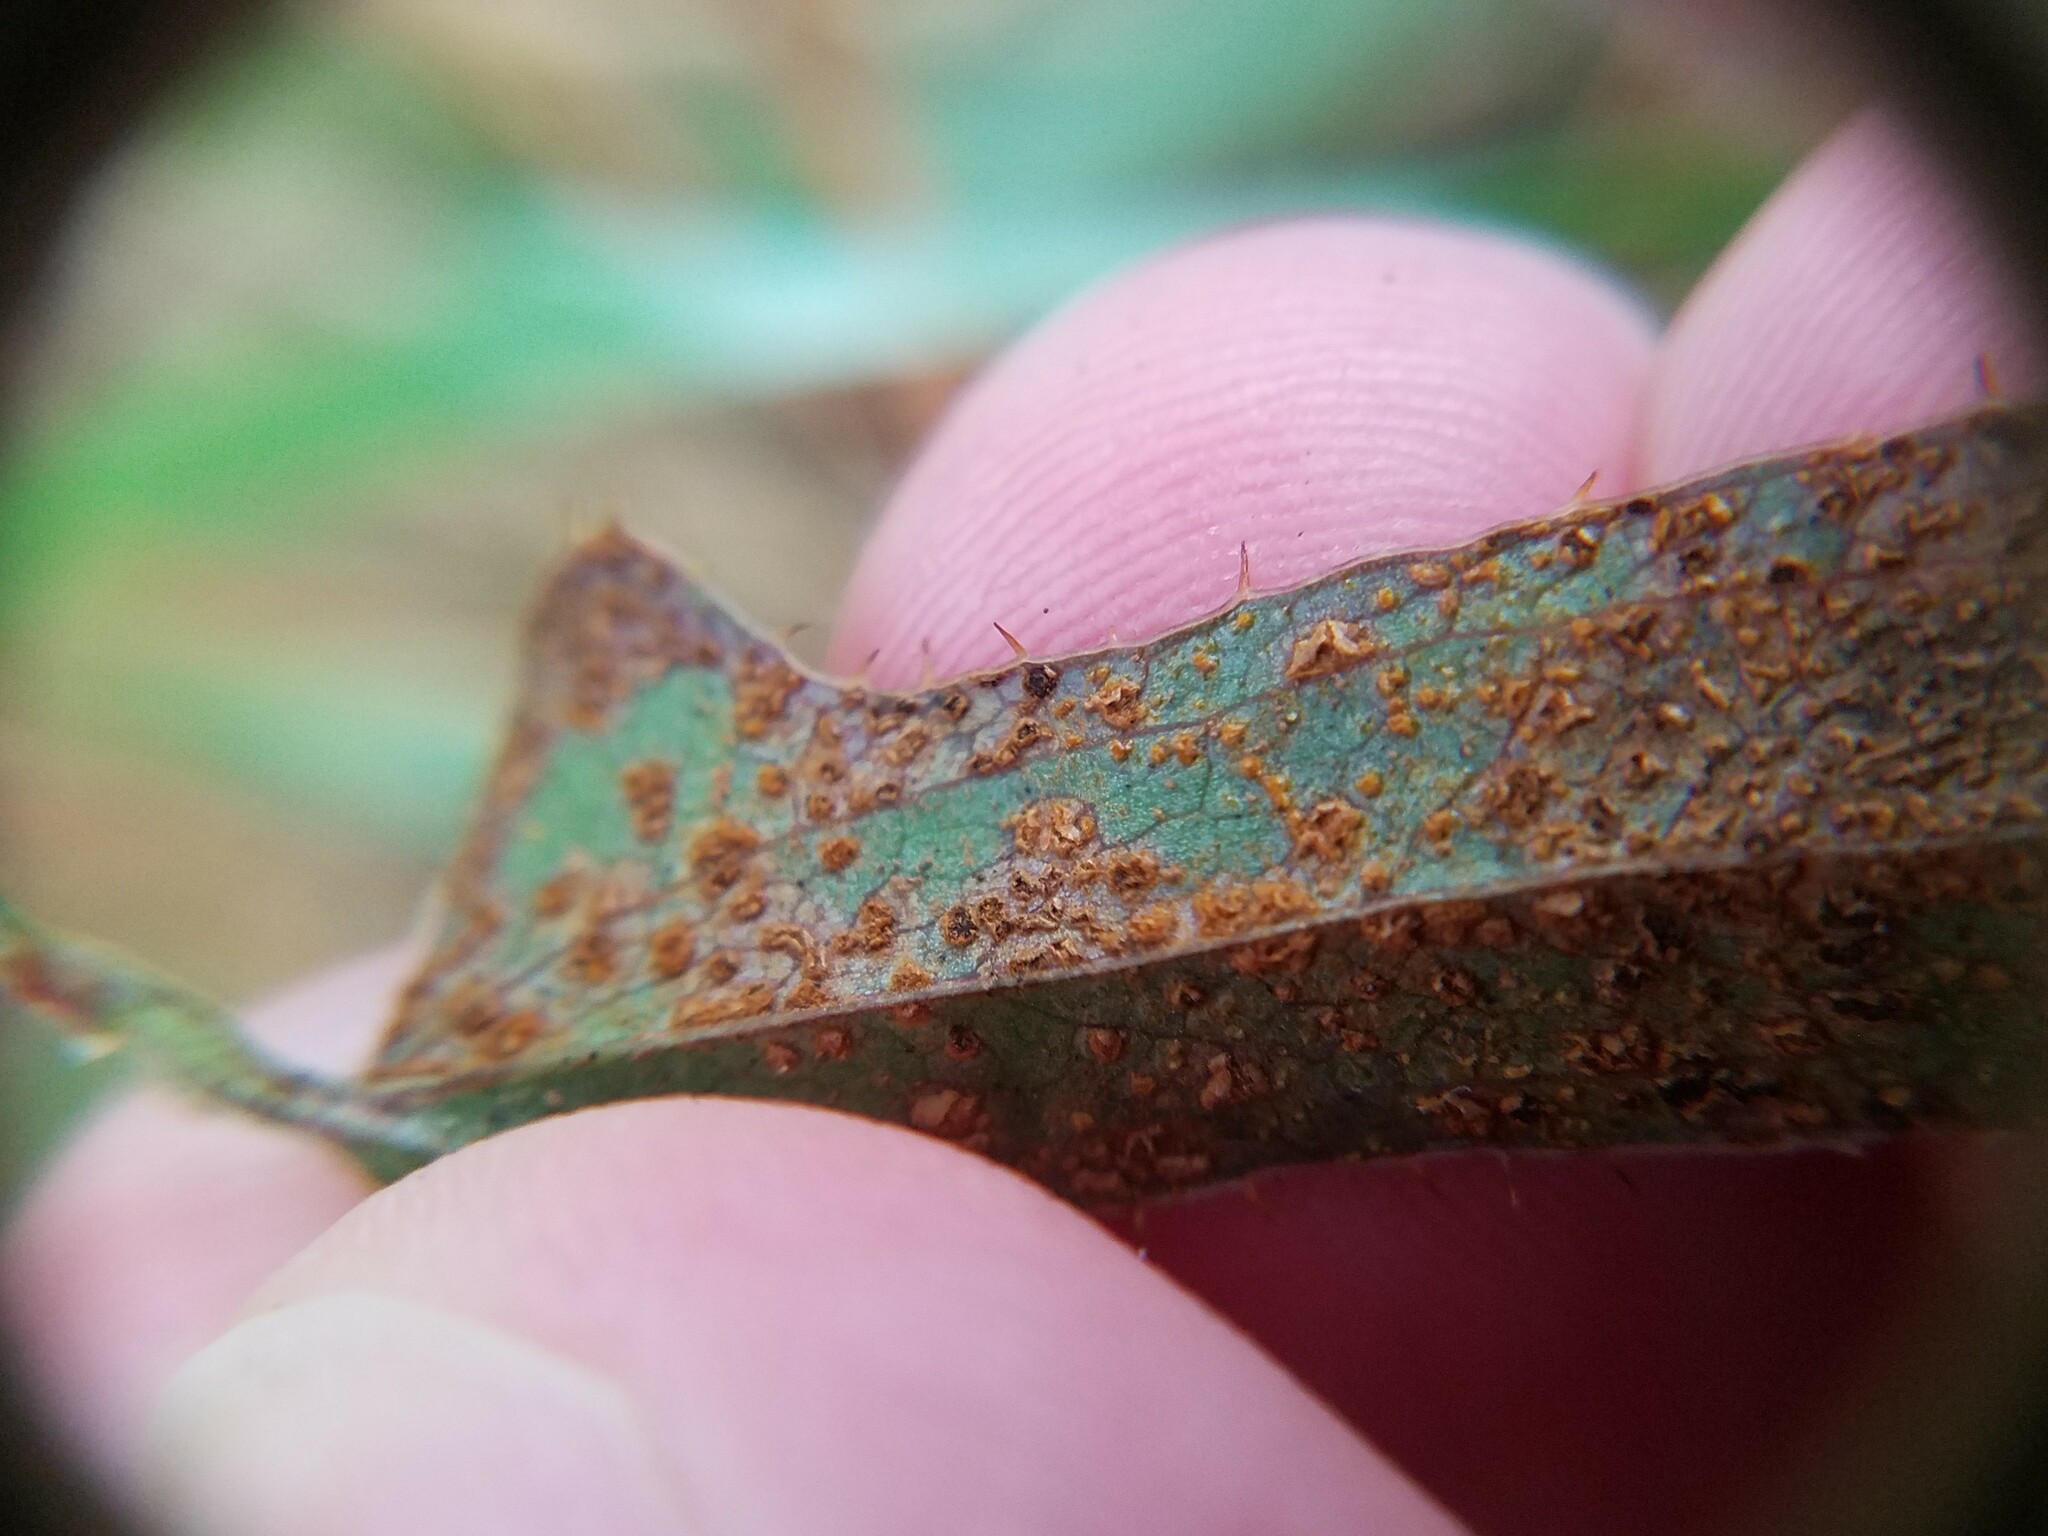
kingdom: Plantae
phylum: Tracheophyta
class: Liliopsida
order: Liliales
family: Smilacaceae
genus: Smilax
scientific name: Smilax bona-nox
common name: Catbrier
